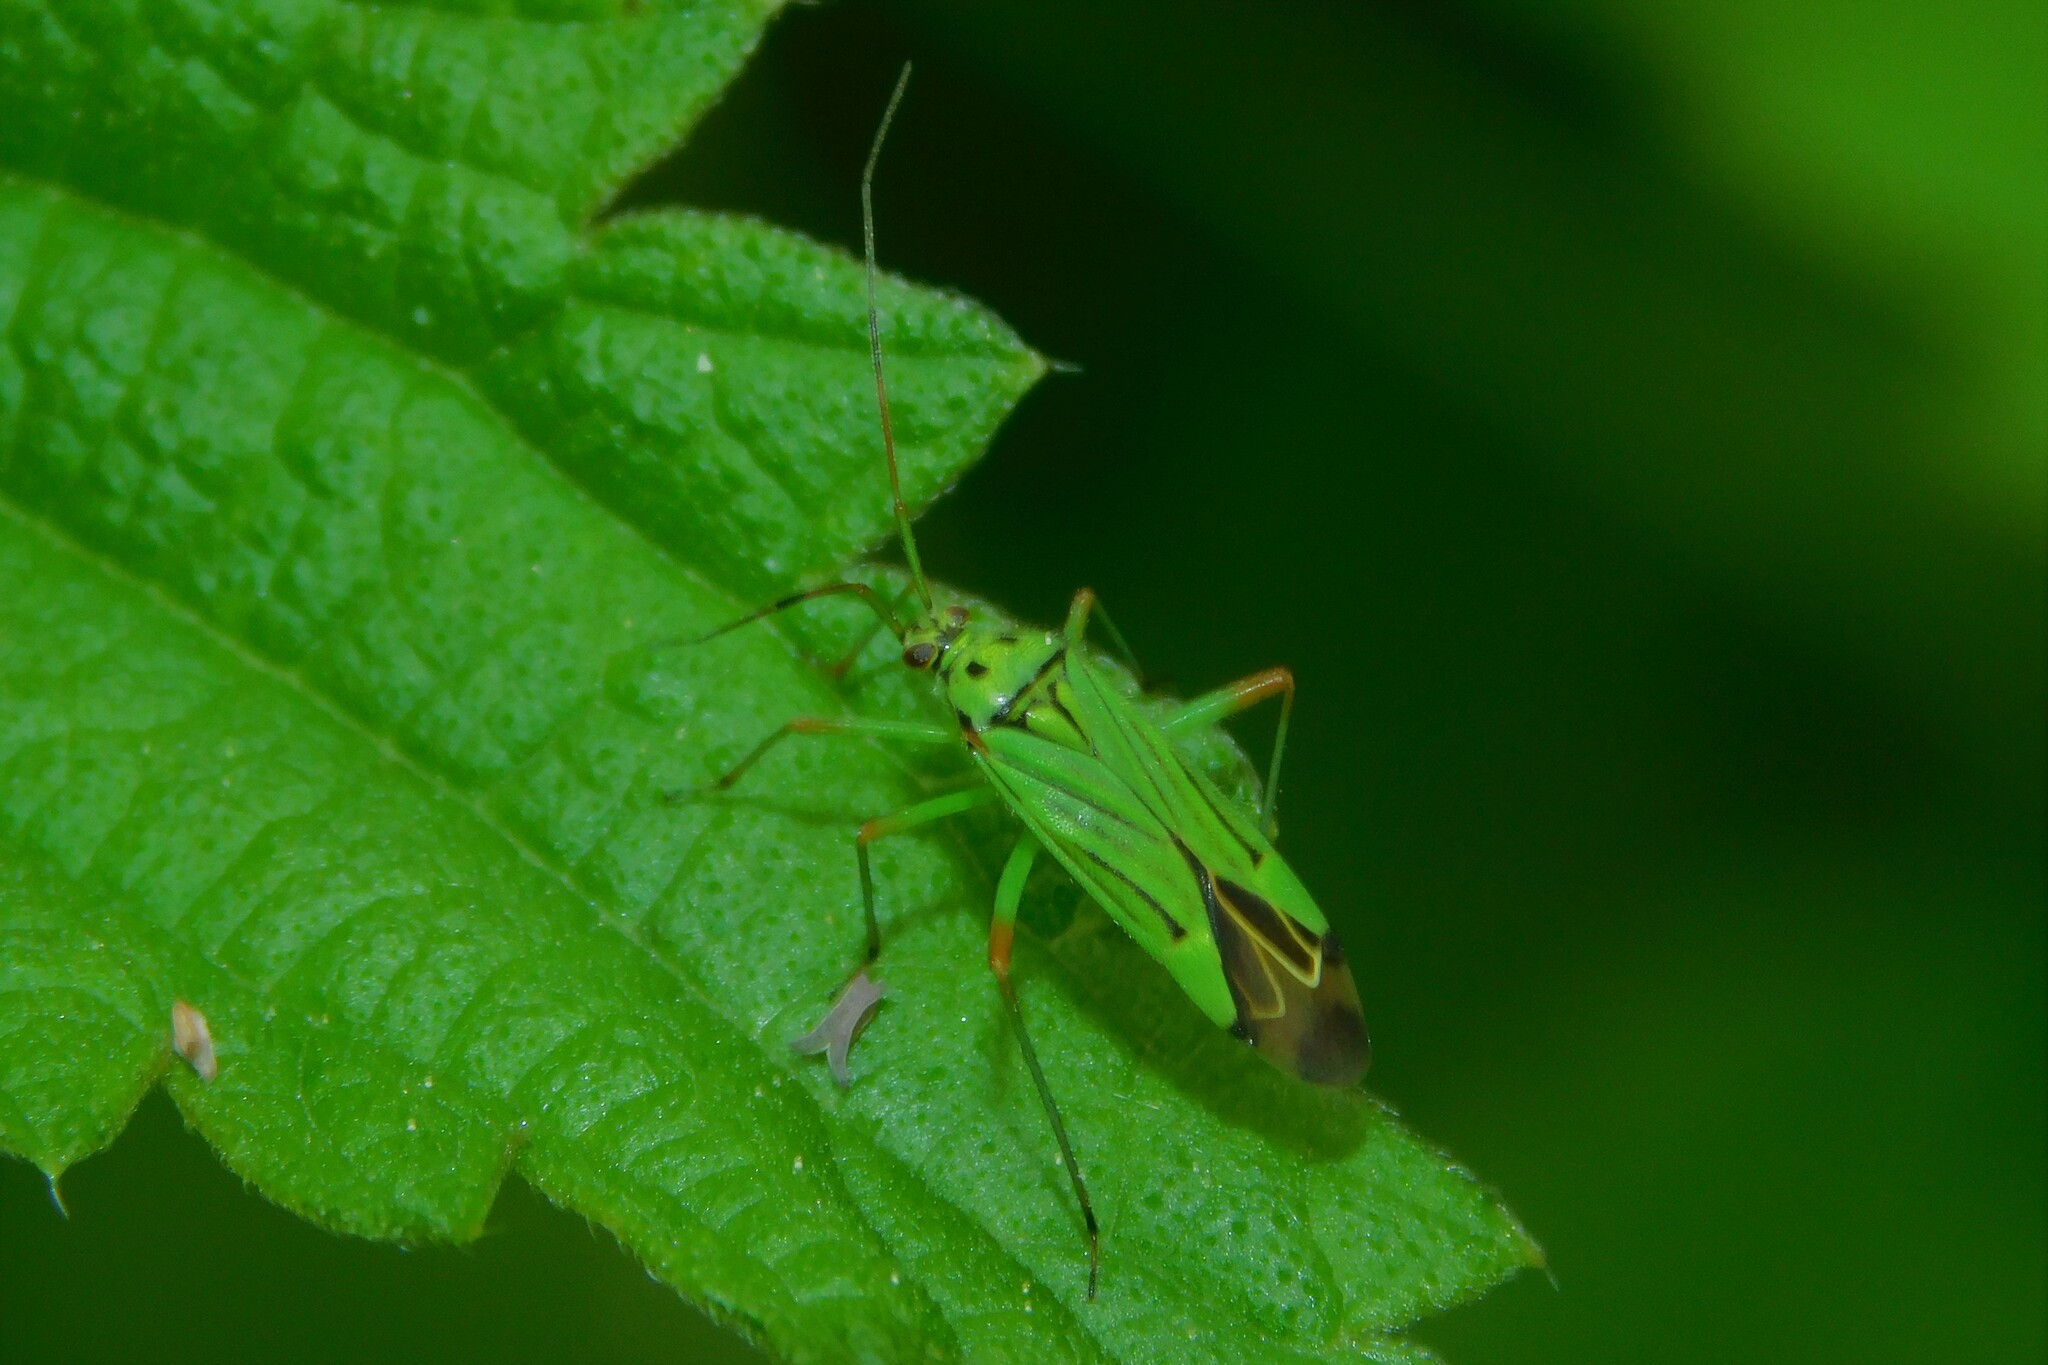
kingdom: Animalia
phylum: Arthropoda
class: Insecta
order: Hemiptera
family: Miridae
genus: Mermitelocerus
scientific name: Mermitelocerus schmidtii
